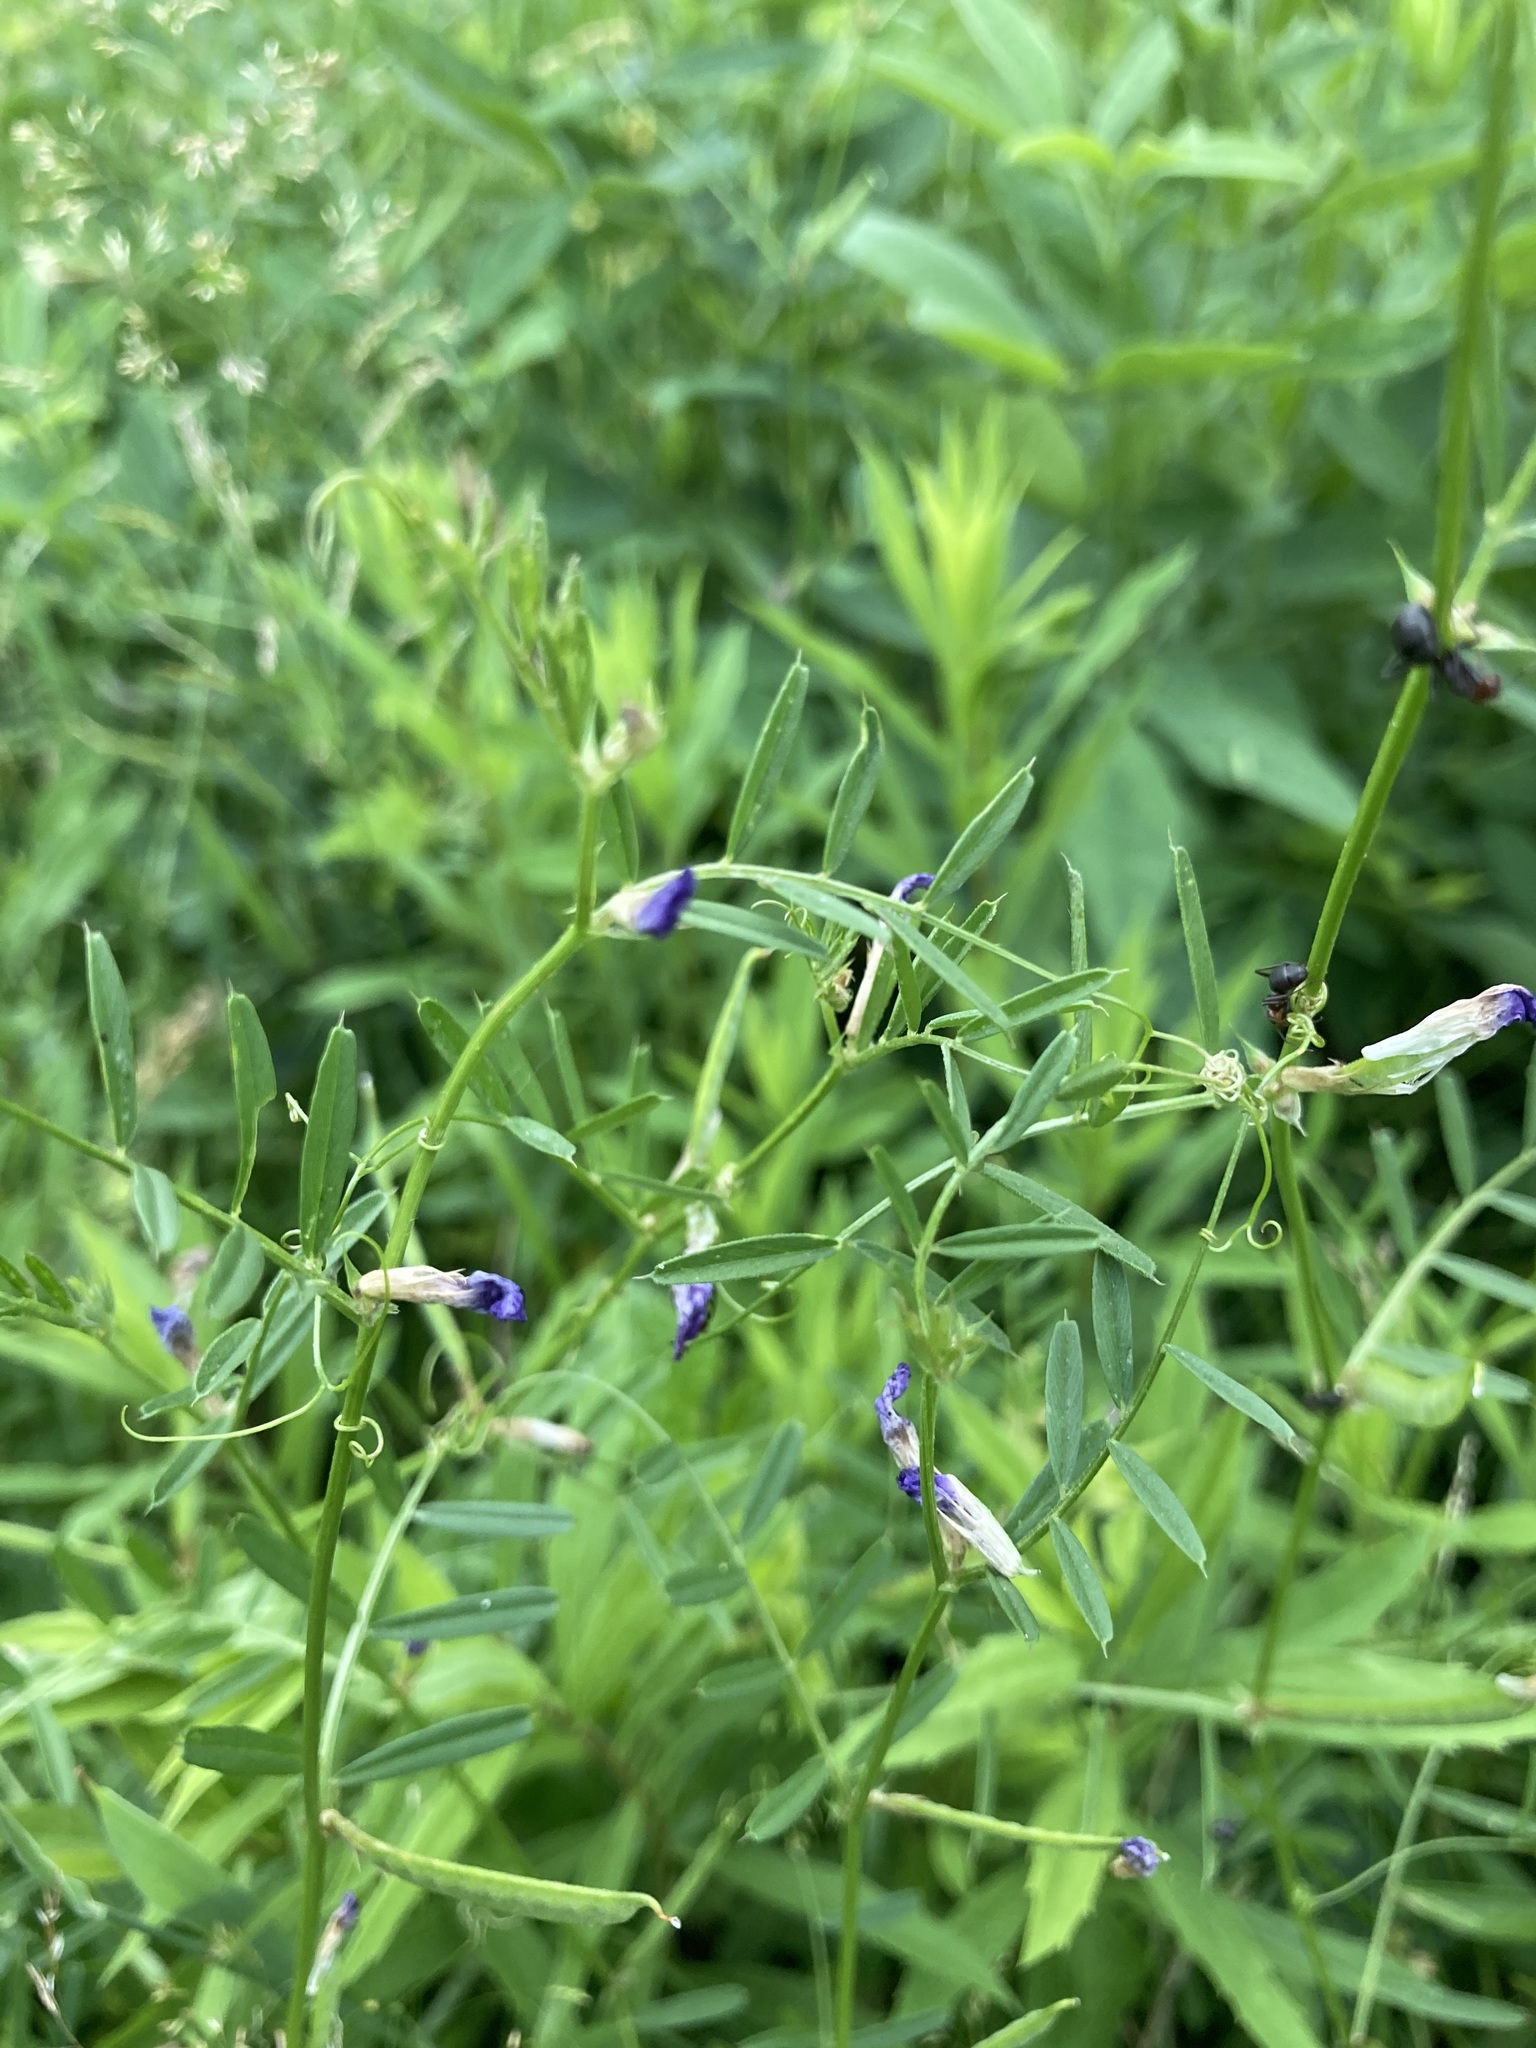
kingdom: Plantae
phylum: Tracheophyta
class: Magnoliopsida
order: Fabales
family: Fabaceae
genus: Vicia
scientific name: Vicia sativa
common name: Garden vetch
